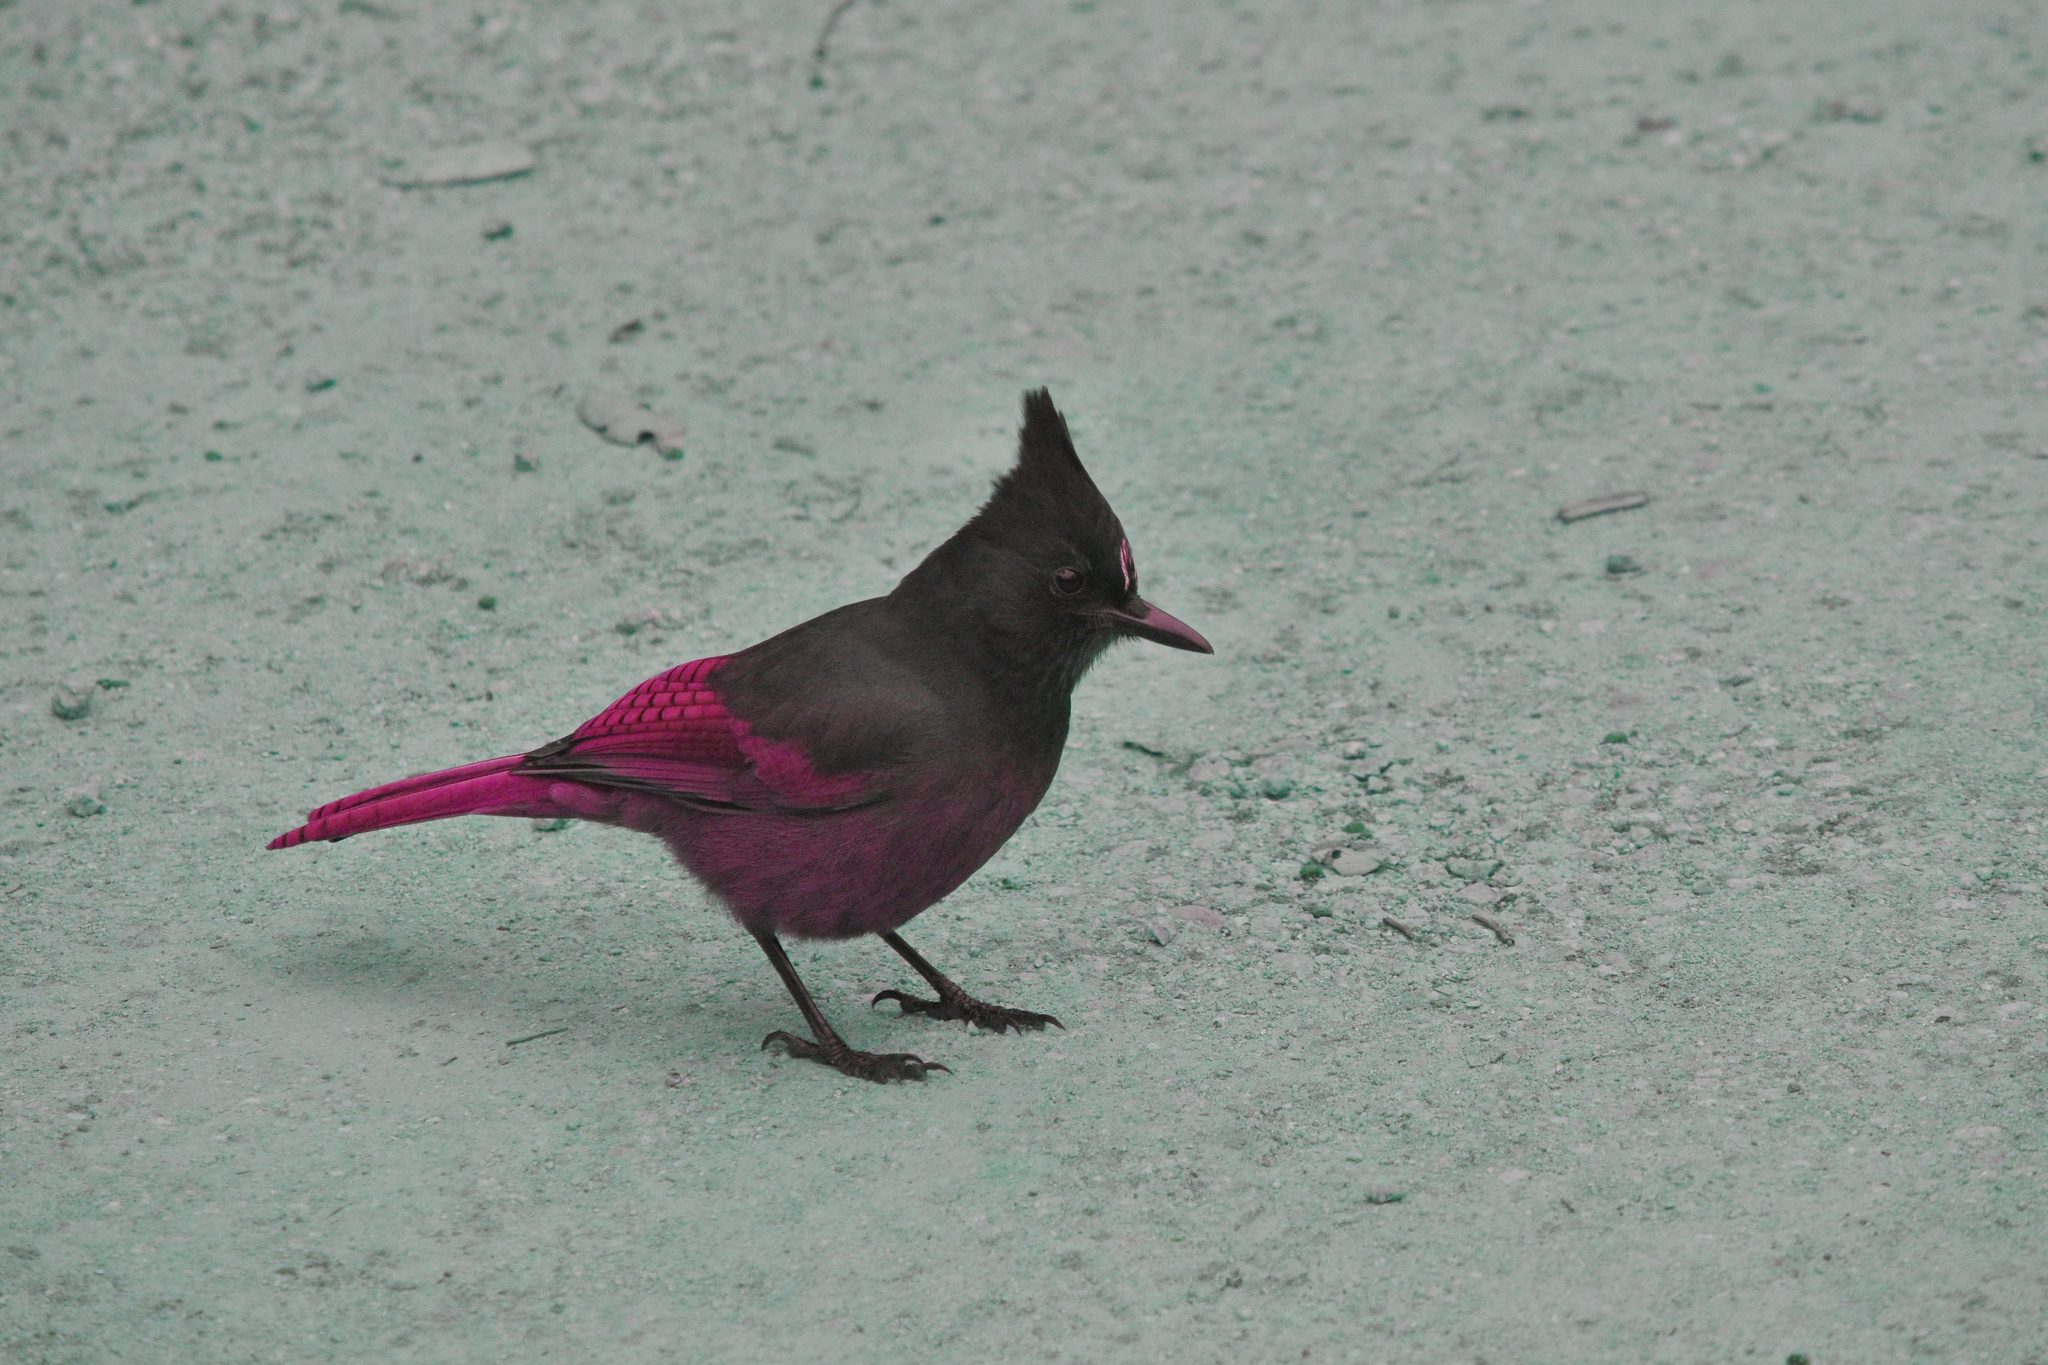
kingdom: Animalia
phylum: Chordata
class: Aves
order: Passeriformes
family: Corvidae
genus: Cyanocitta
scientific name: Cyanocitta stelleri
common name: Steller's jay
